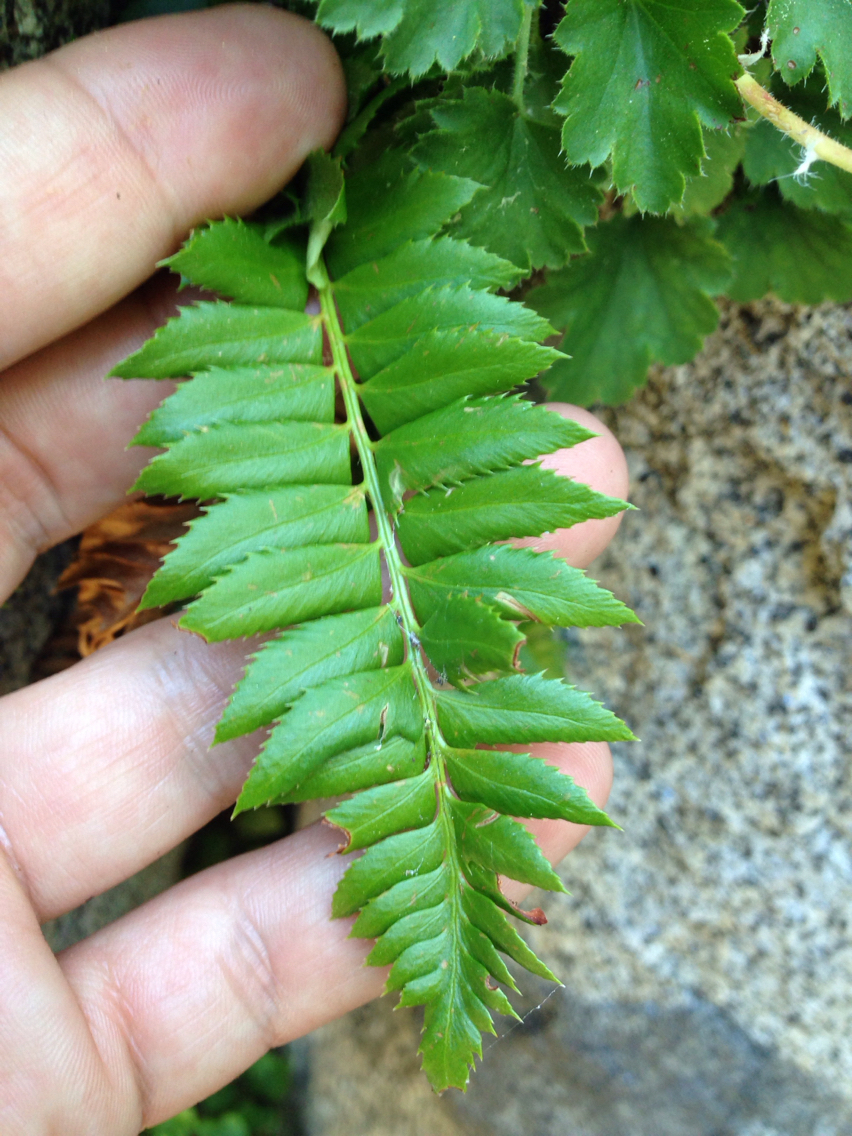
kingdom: Plantae
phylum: Tracheophyta
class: Polypodiopsida
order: Polypodiales
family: Dryopteridaceae
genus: Polystichum
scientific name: Polystichum lonchitis
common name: Holly fern
